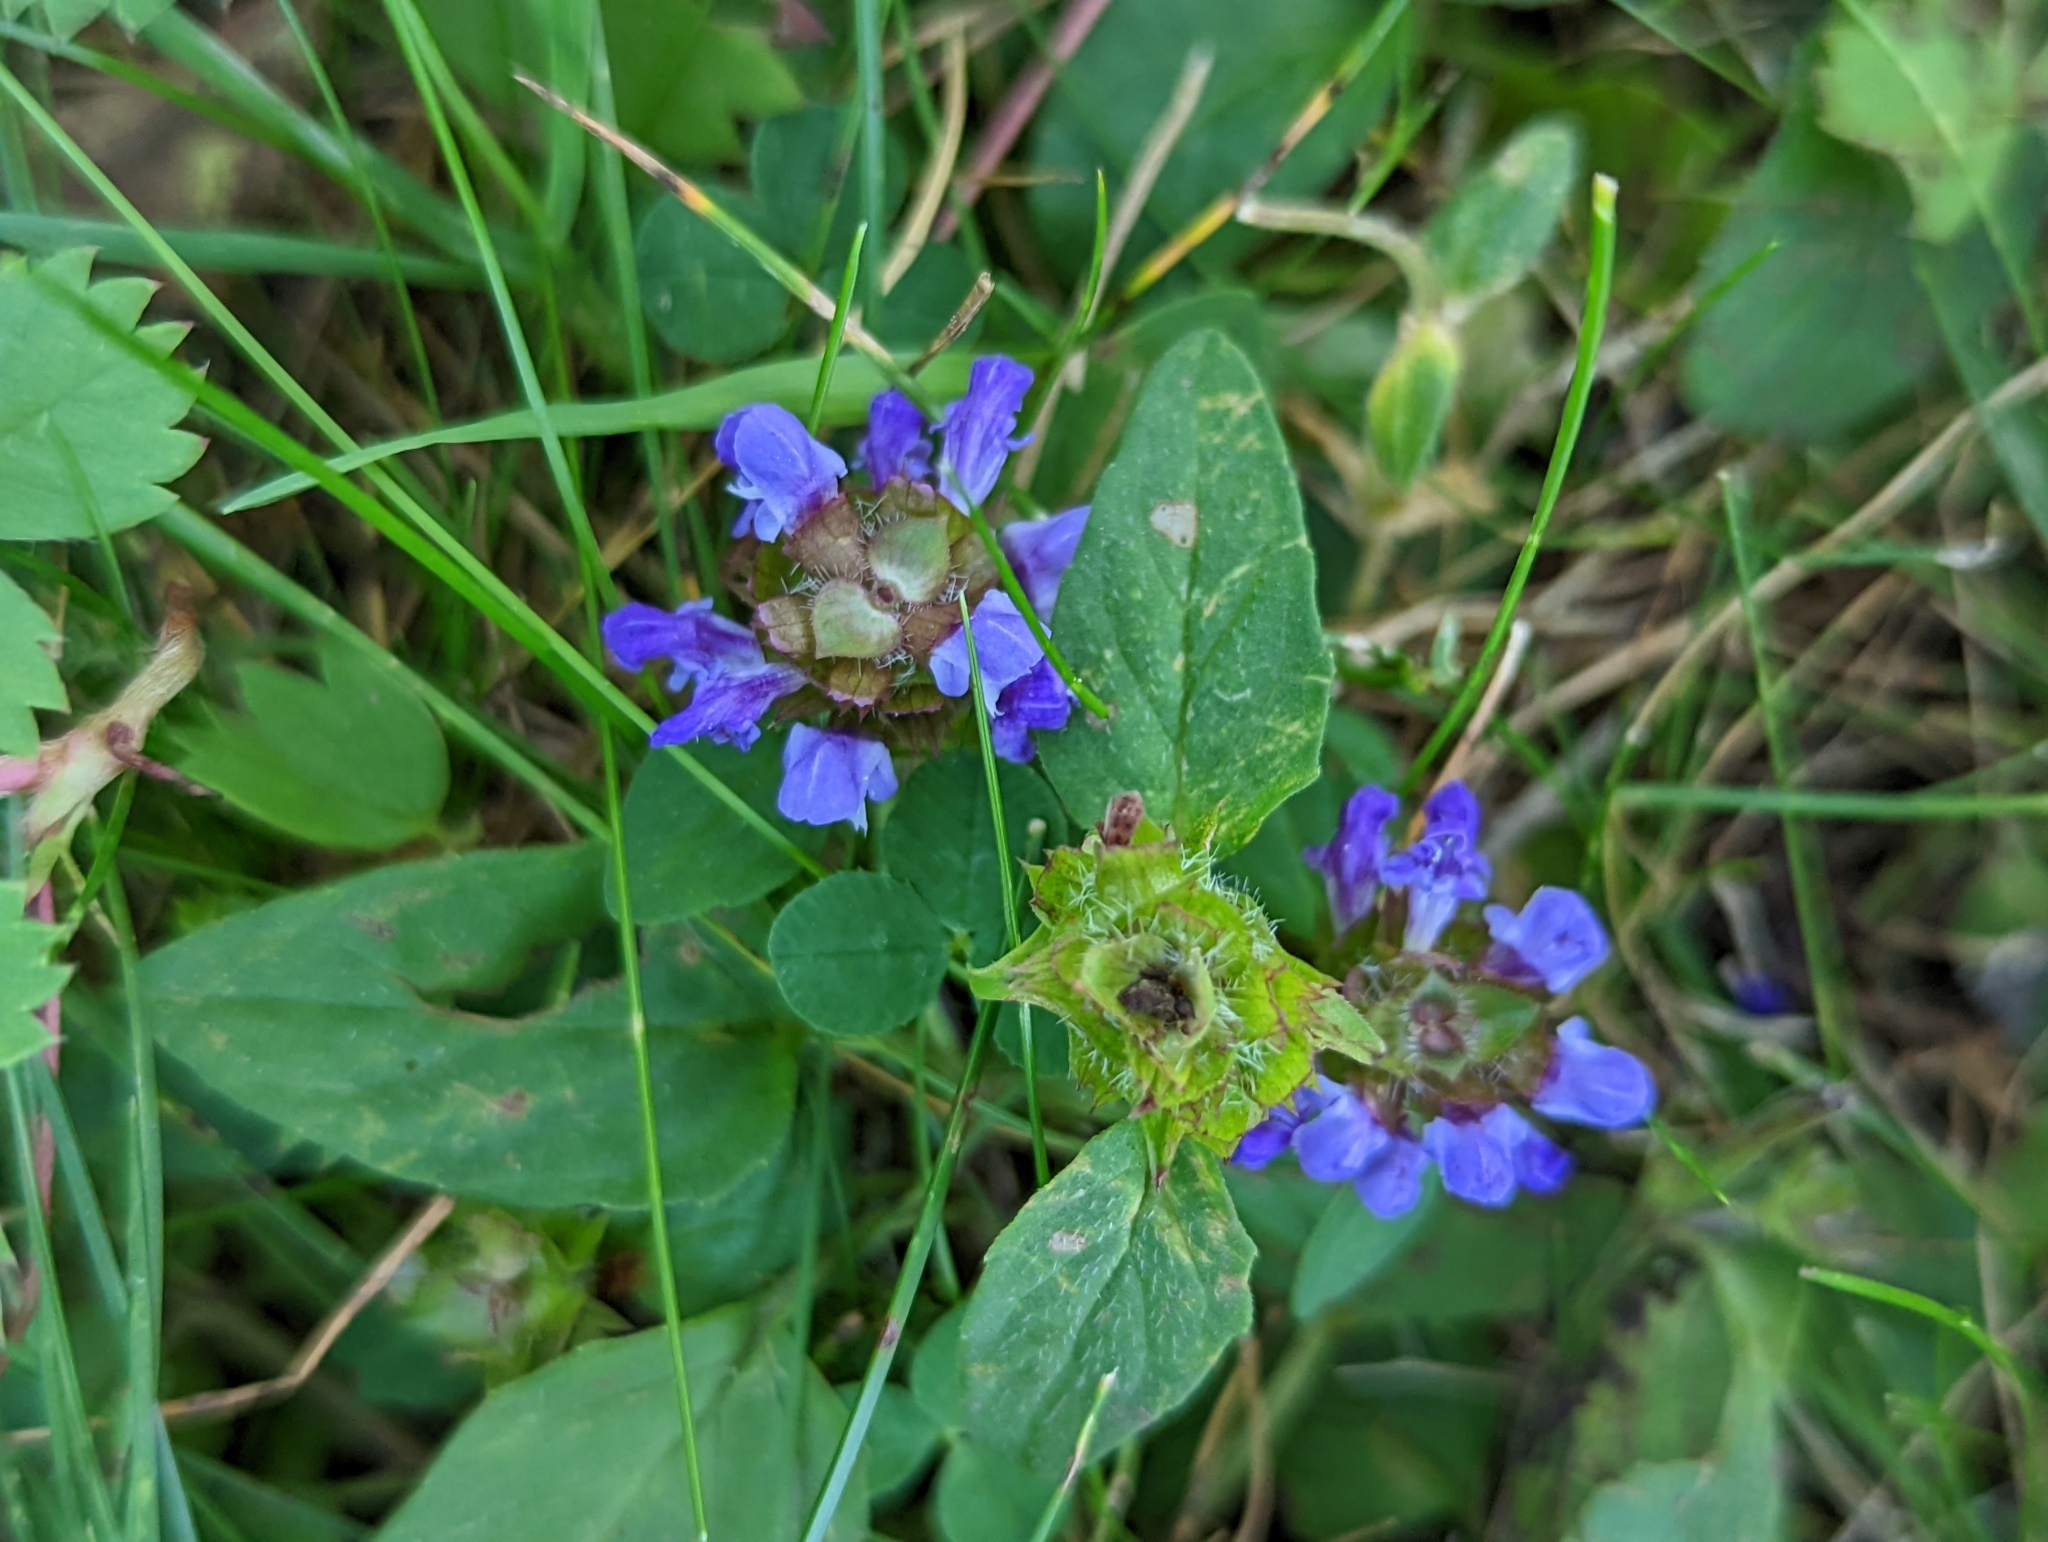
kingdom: Plantae
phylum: Tracheophyta
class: Magnoliopsida
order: Lamiales
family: Lamiaceae
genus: Prunella
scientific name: Prunella vulgaris
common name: Heal-all
